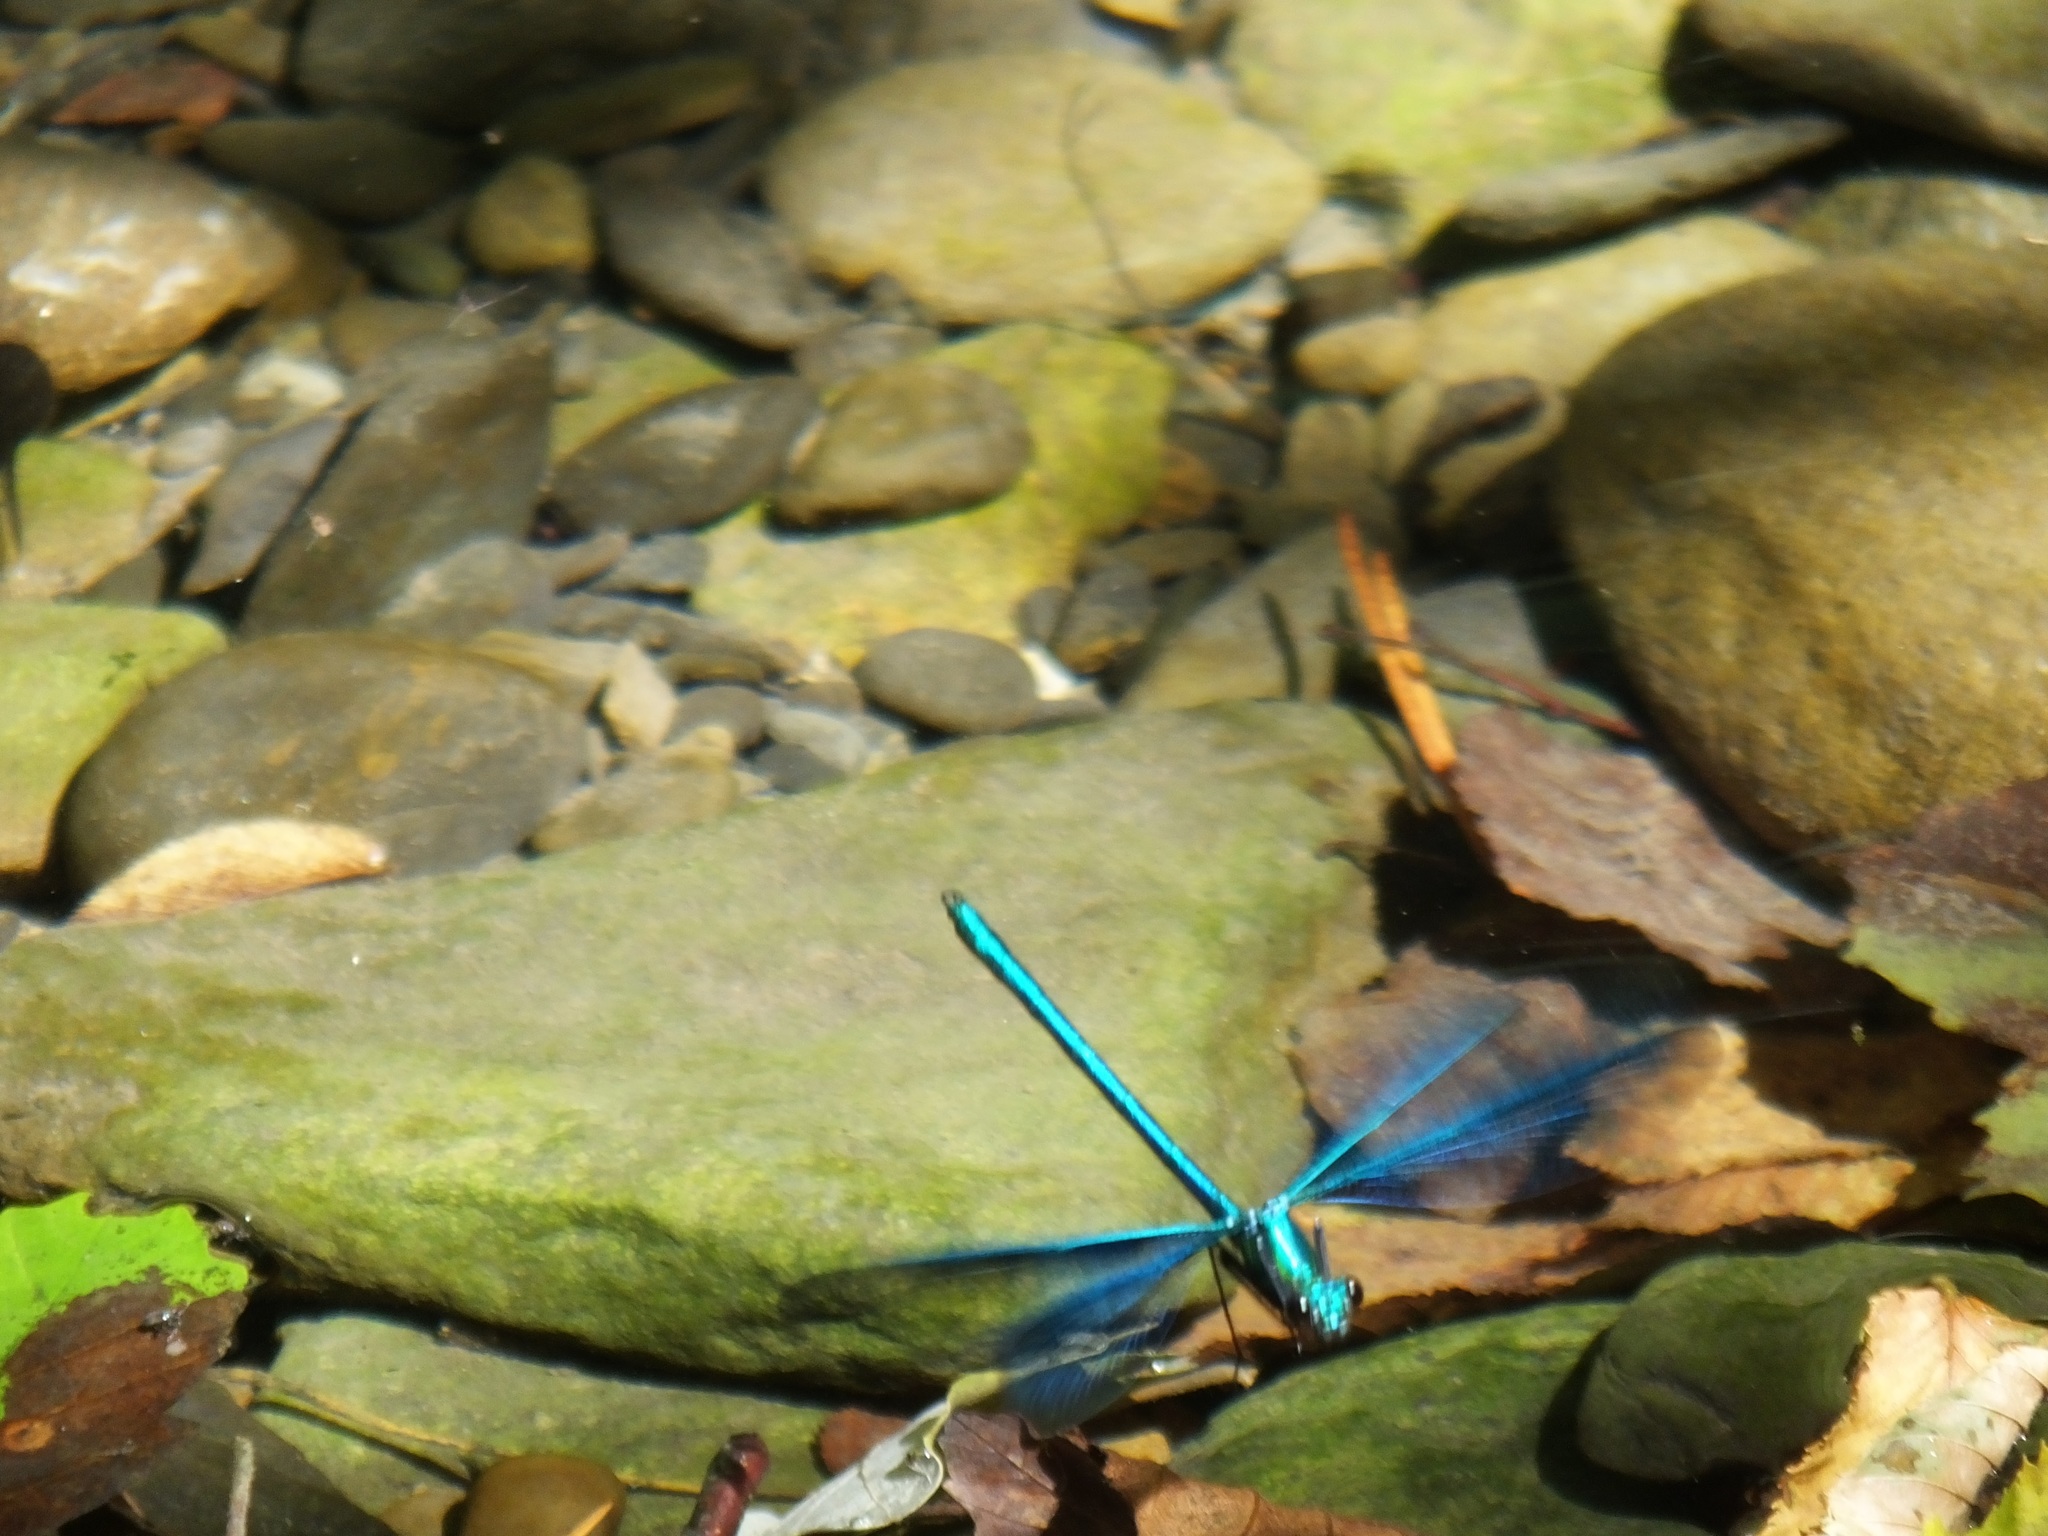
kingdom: Animalia
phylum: Arthropoda
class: Insecta
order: Odonata
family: Calopterygidae
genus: Calopteryx
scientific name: Calopteryx virgo
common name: Beautiful demoiselle
